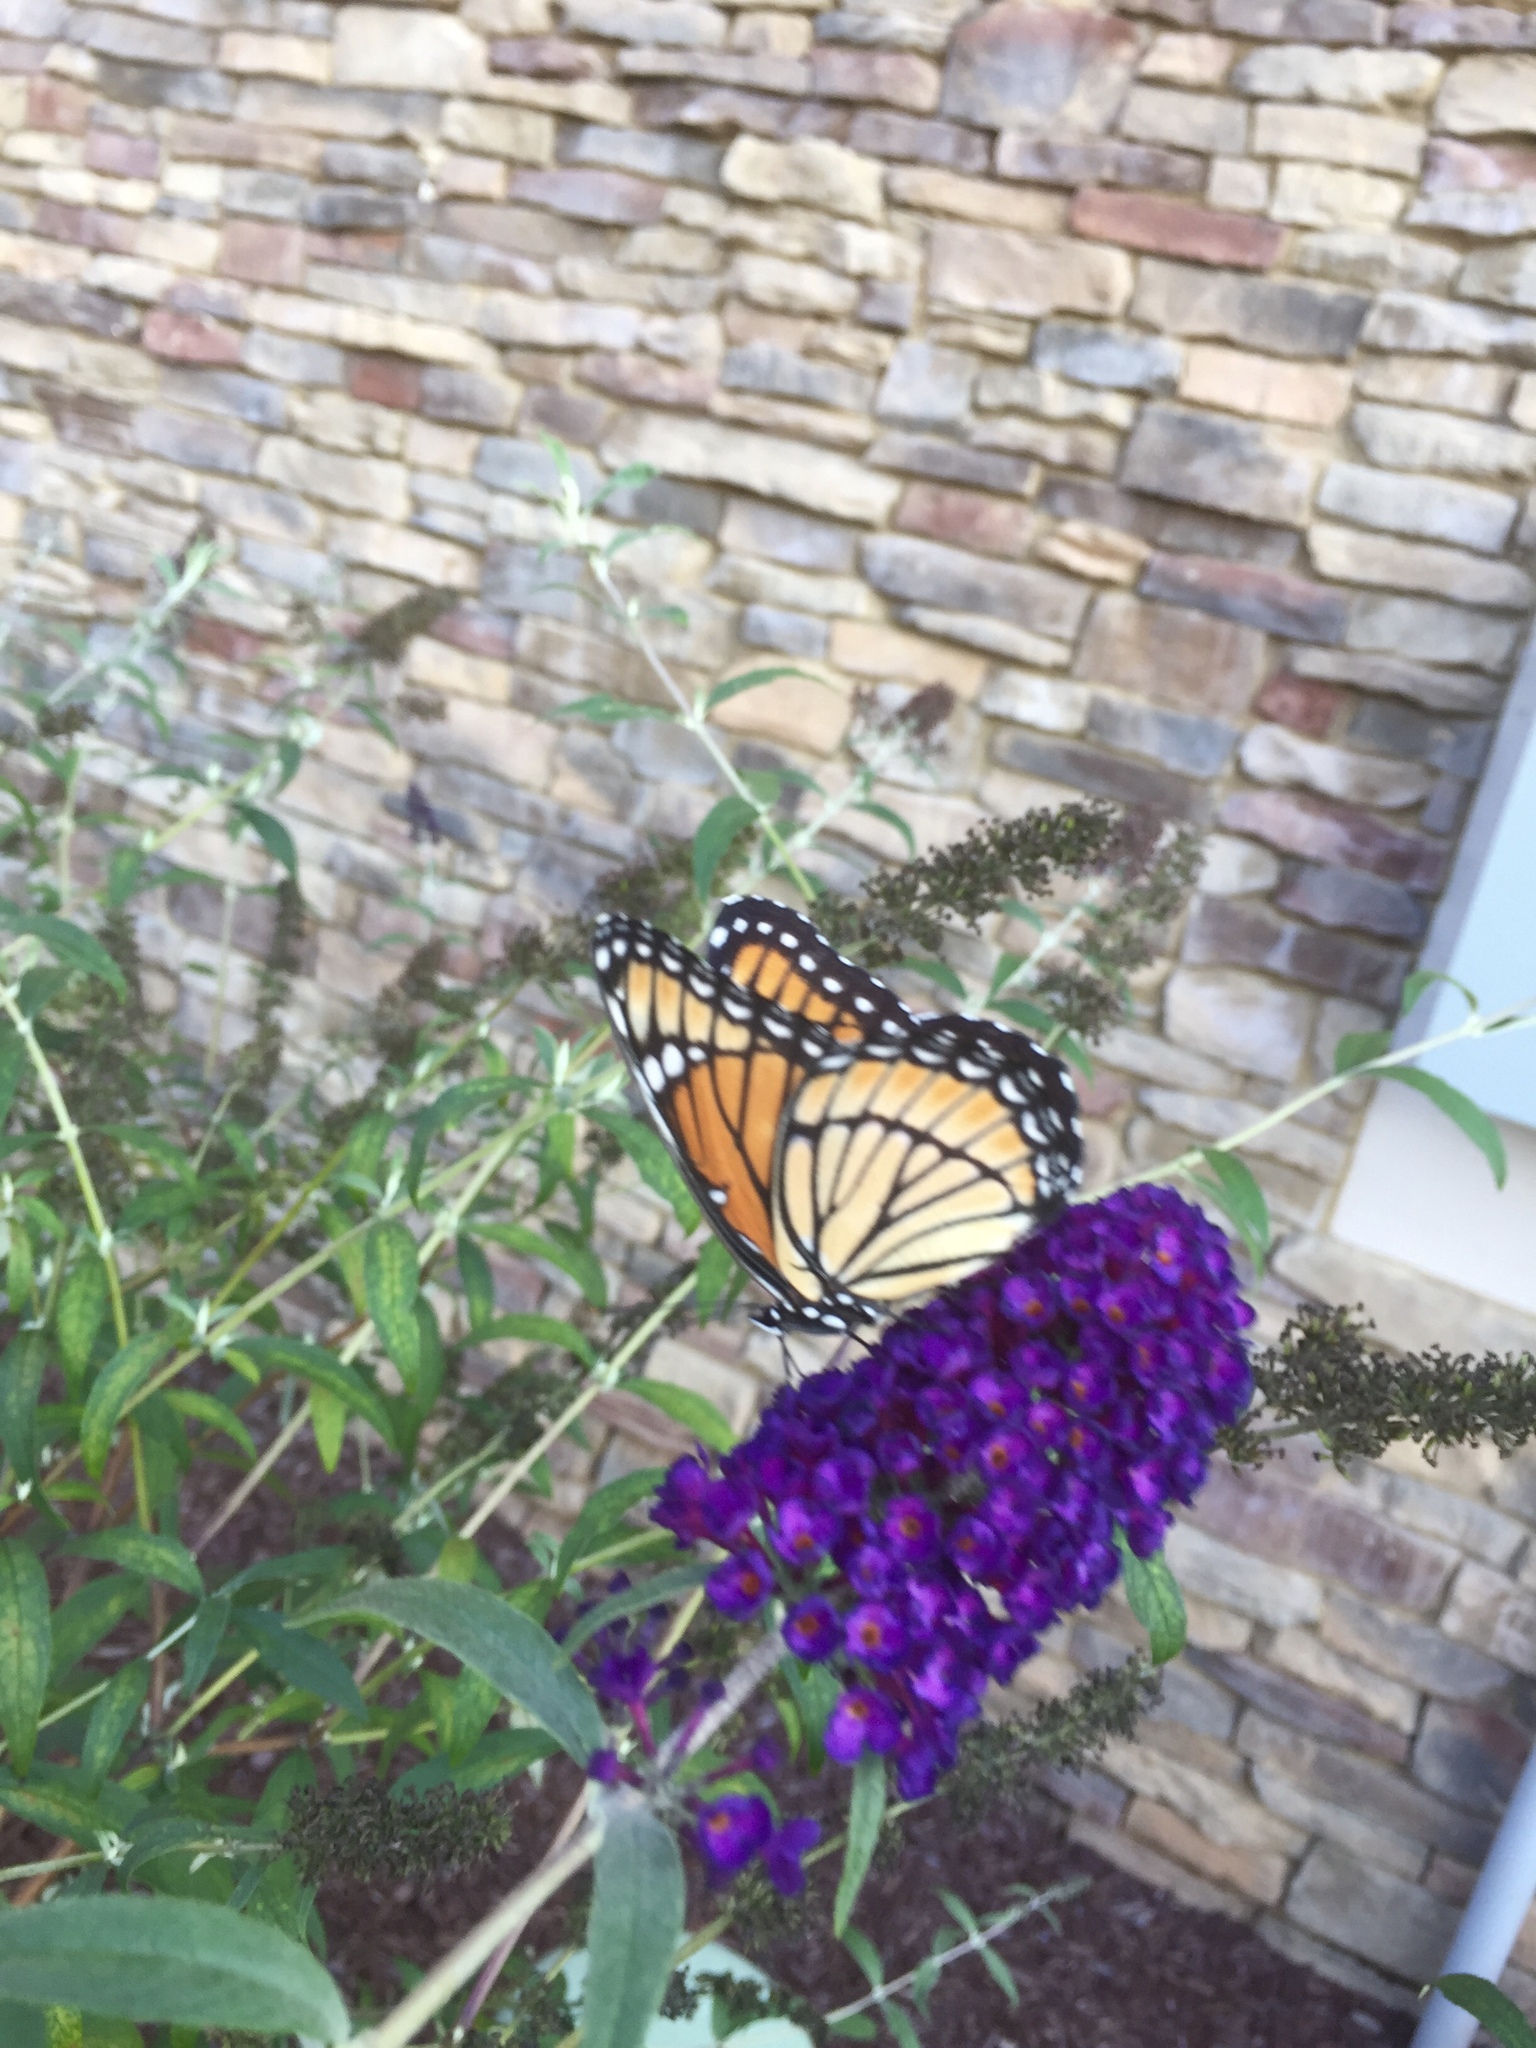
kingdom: Animalia
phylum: Arthropoda
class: Insecta
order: Lepidoptera
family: Nymphalidae
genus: Limenitis
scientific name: Limenitis archippus
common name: Viceroy
